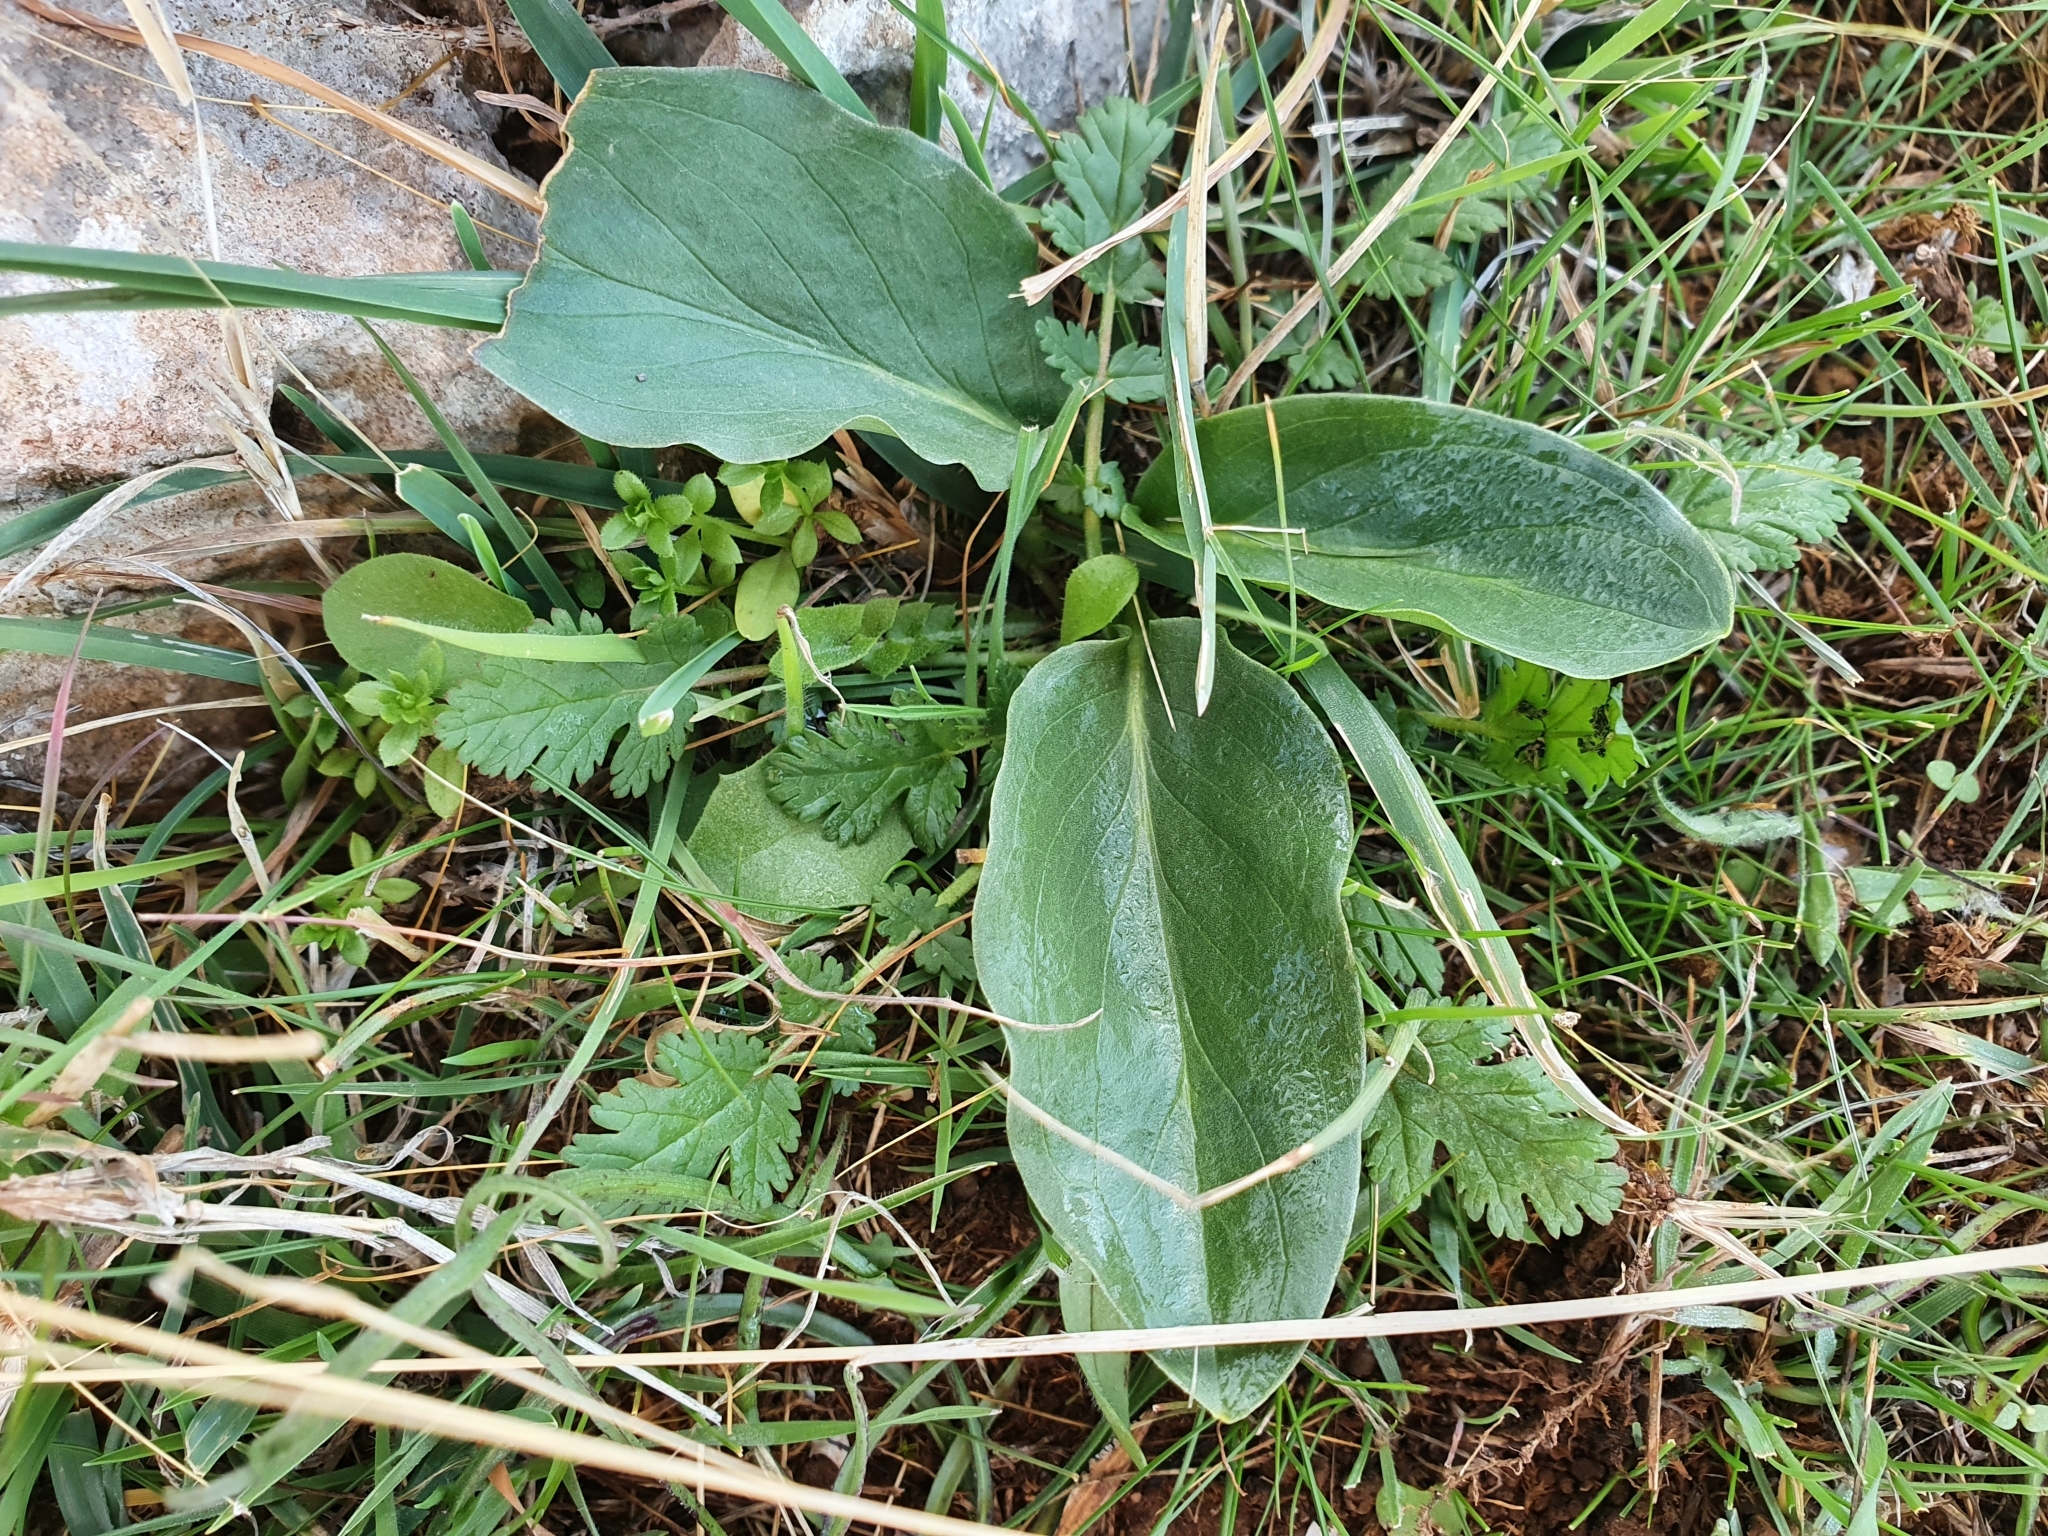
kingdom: Plantae
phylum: Tracheophyta
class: Liliopsida
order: Alismatales
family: Araceae
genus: Biarum
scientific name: Biarum dispar
